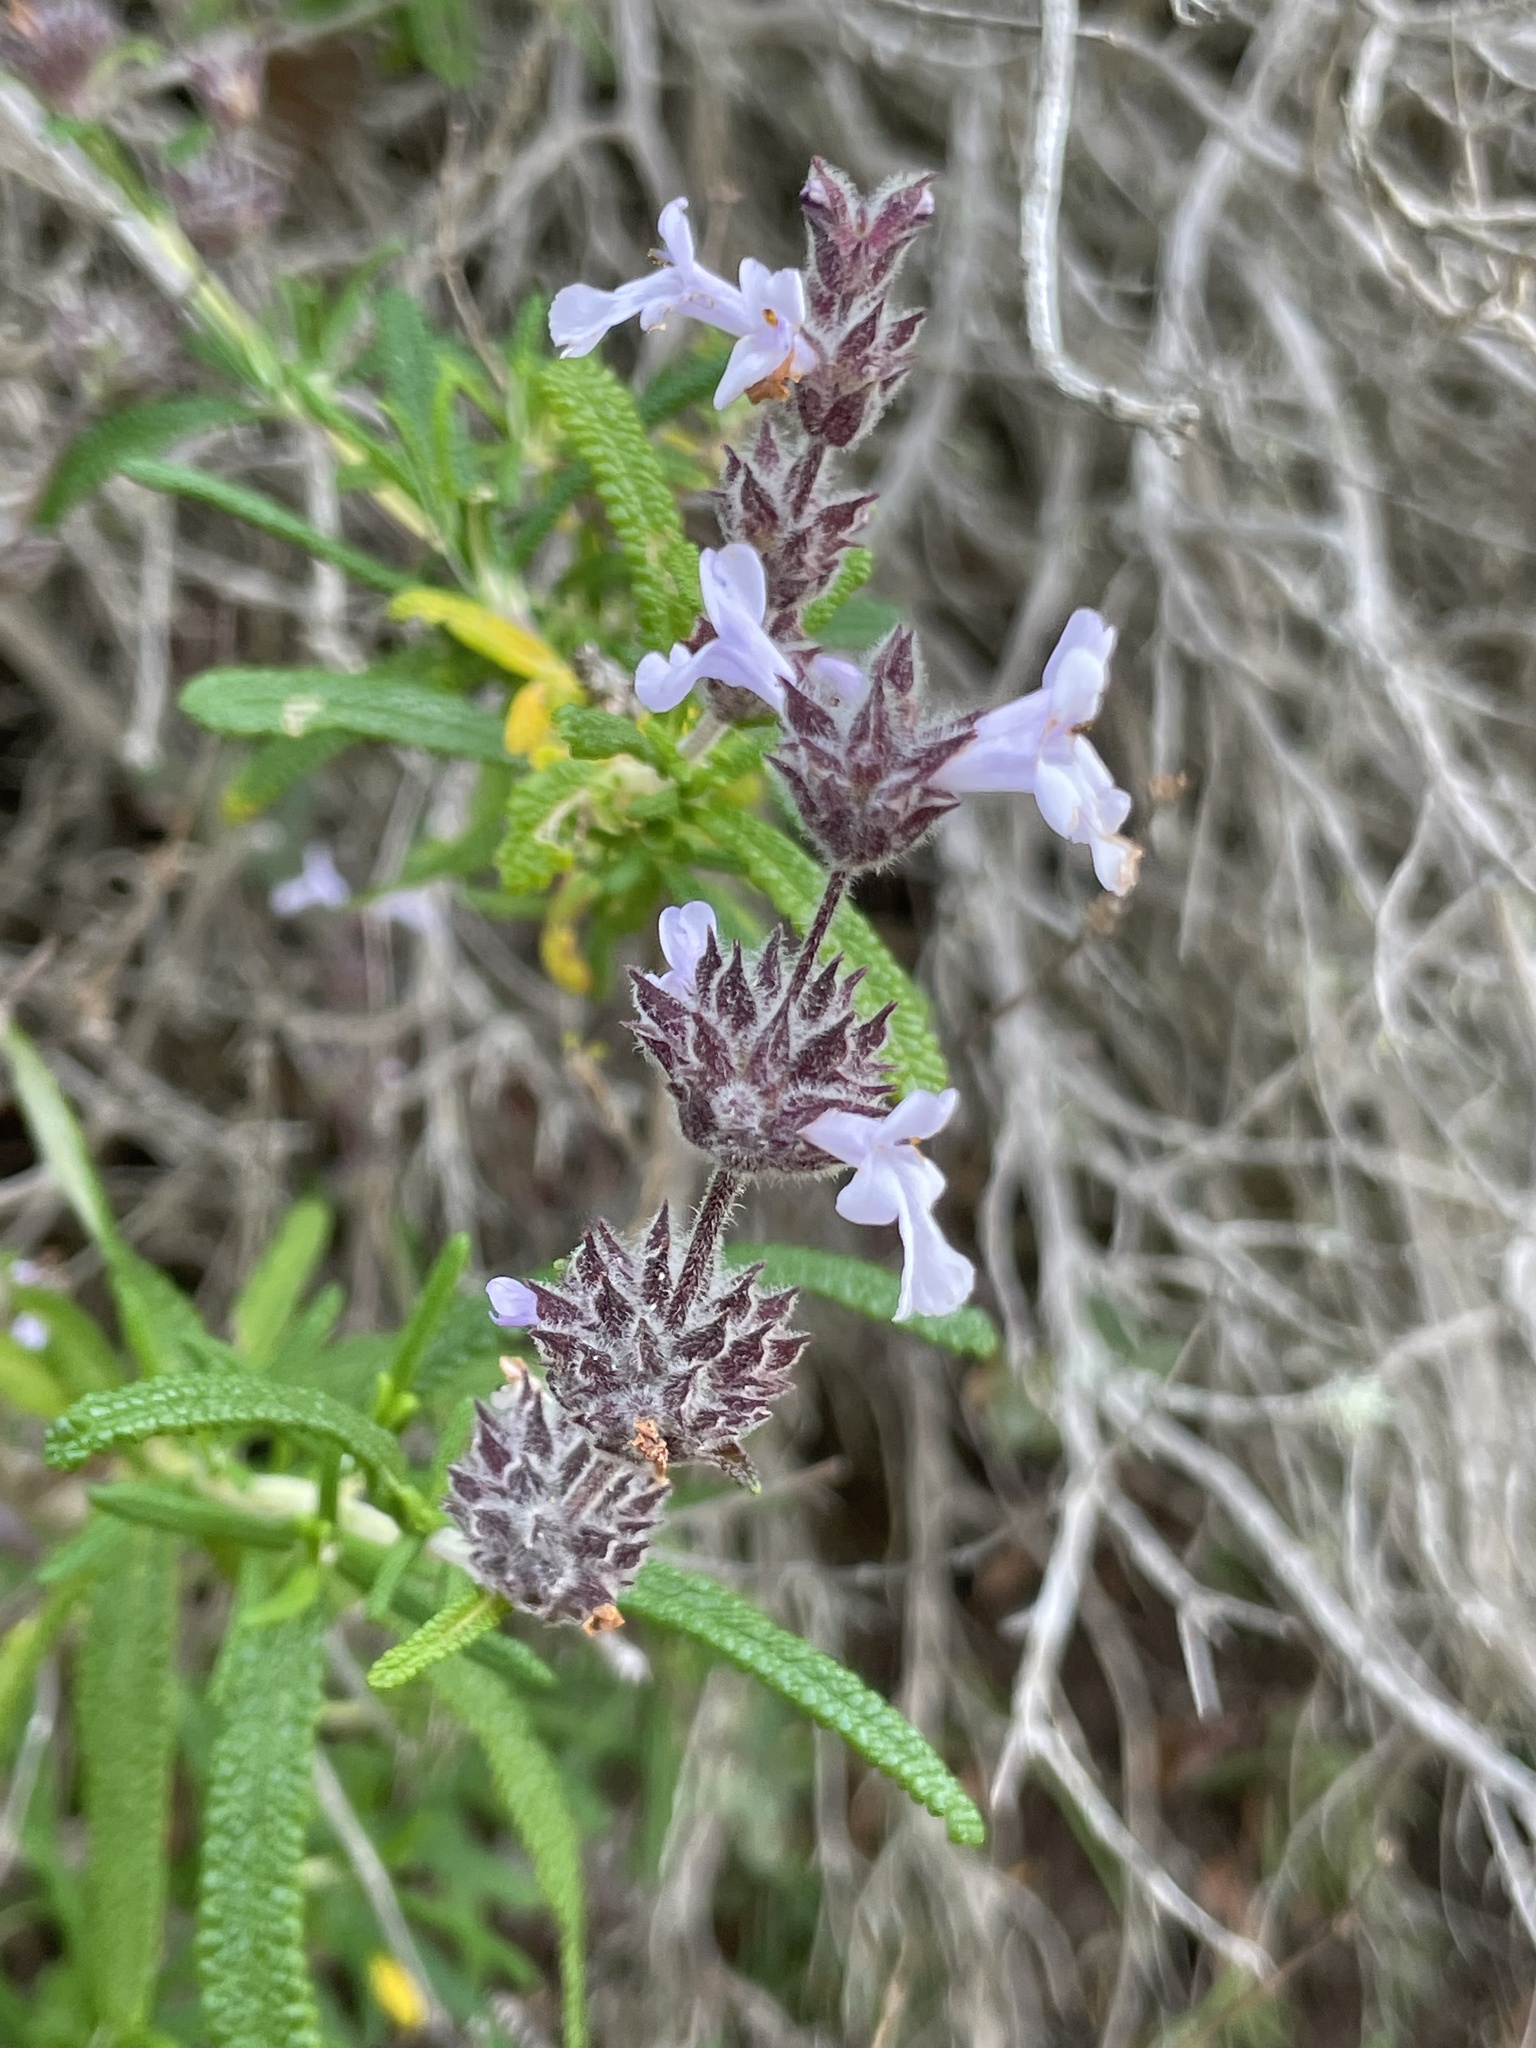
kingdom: Plantae
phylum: Tracheophyta
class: Magnoliopsida
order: Lamiales
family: Lamiaceae
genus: Salvia
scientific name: Salvia brandegeei
